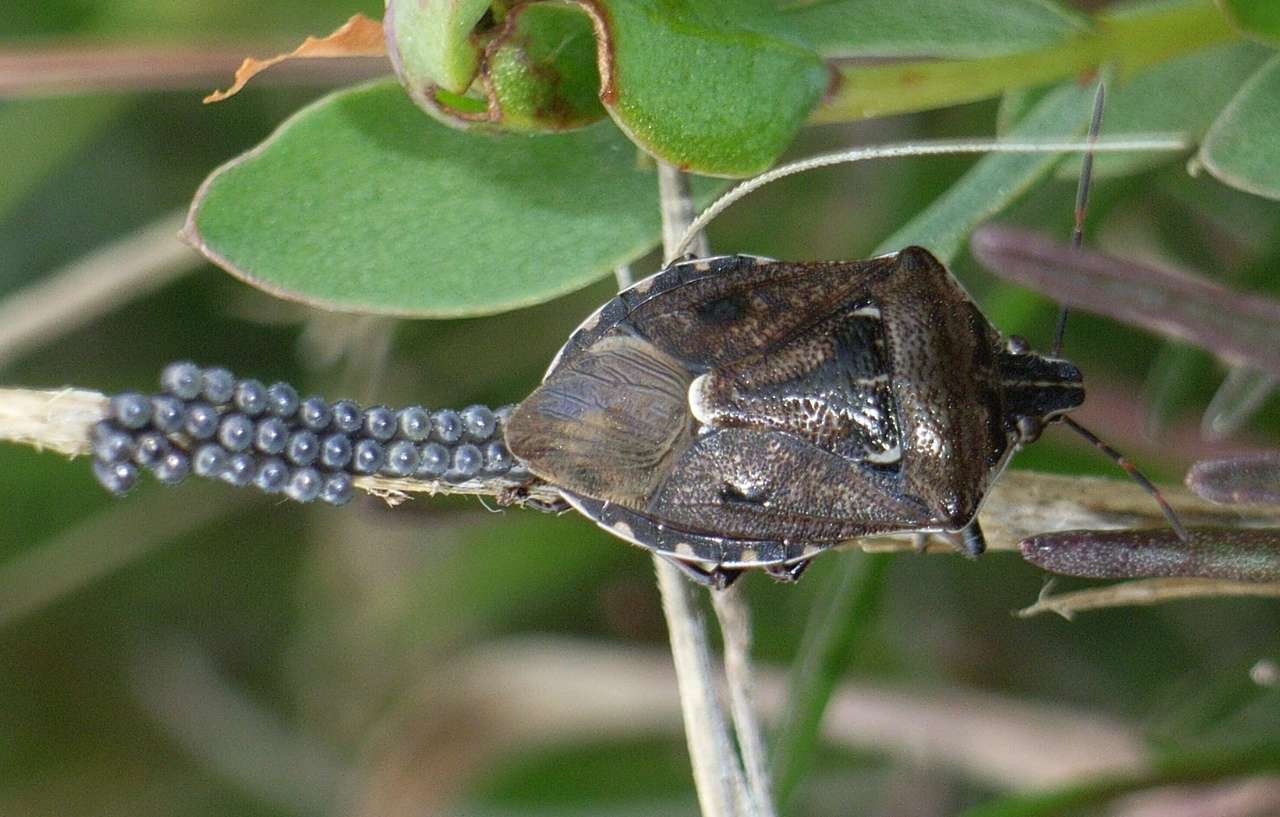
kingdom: Animalia
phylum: Arthropoda
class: Insecta
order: Hemiptera
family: Pentatomidae
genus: Cermatulus
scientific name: Cermatulus nasalis
